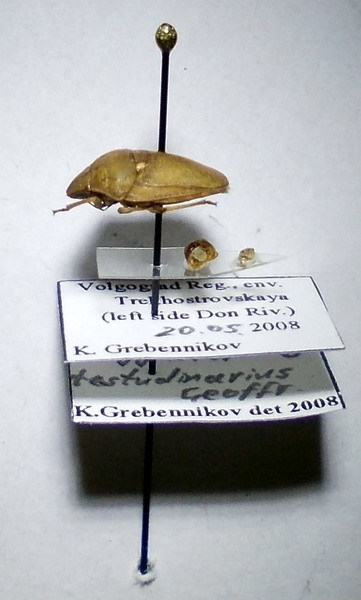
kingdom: Animalia
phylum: Arthropoda
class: Insecta
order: Hemiptera
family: Scutelleridae
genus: Eurygaster
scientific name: Eurygaster testudinaria
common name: Tortoise bug
